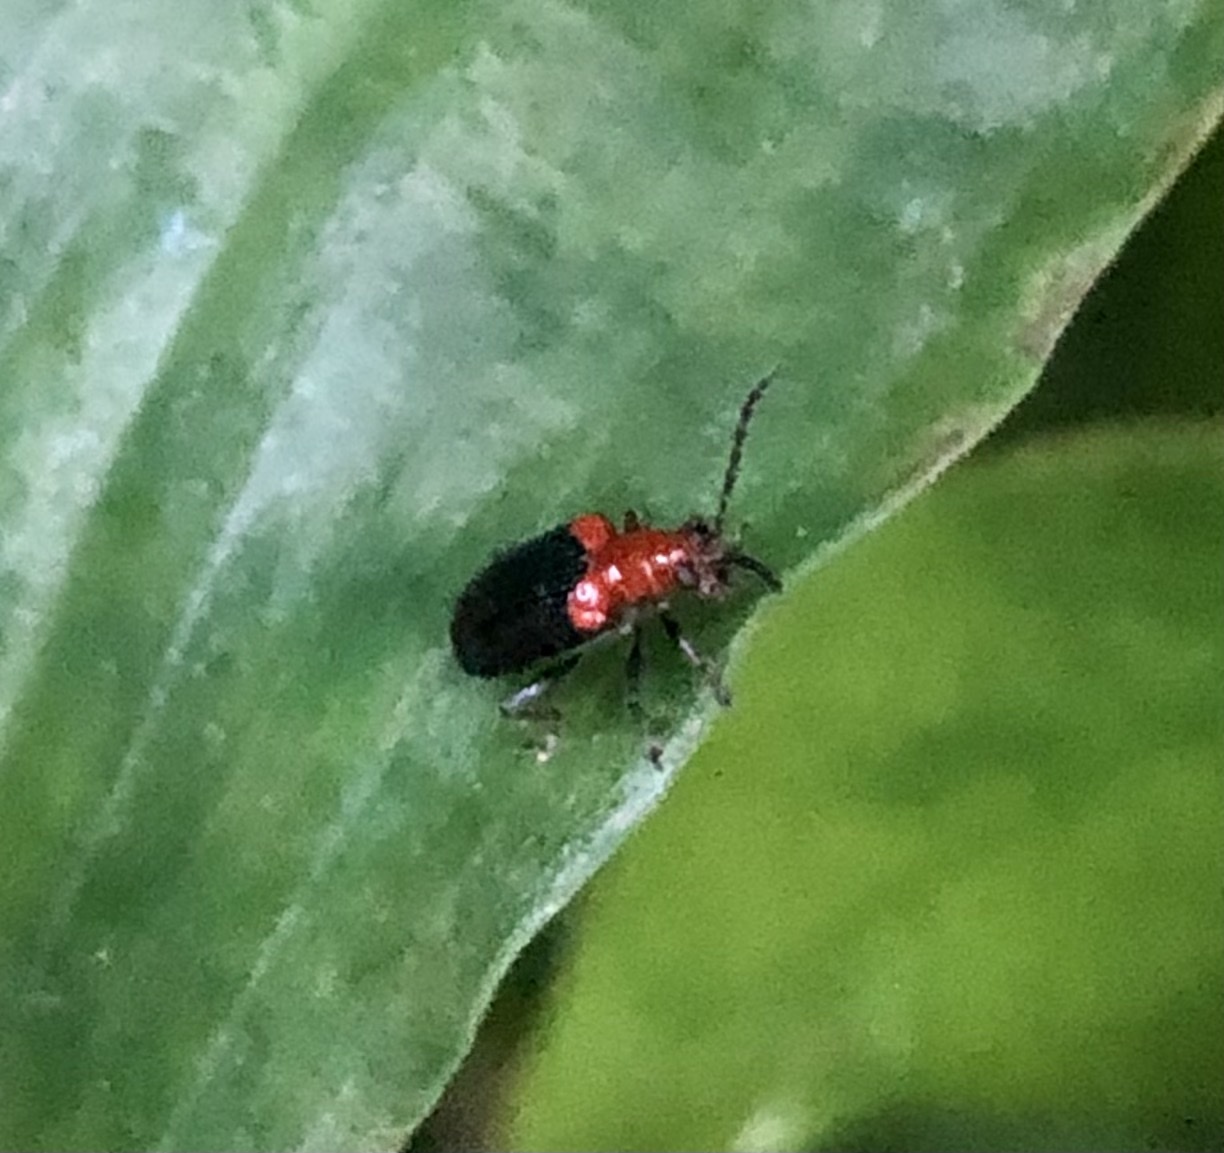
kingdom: Animalia
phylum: Arthropoda
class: Insecta
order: Coleoptera
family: Chrysomelidae
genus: Neolema
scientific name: Neolema
